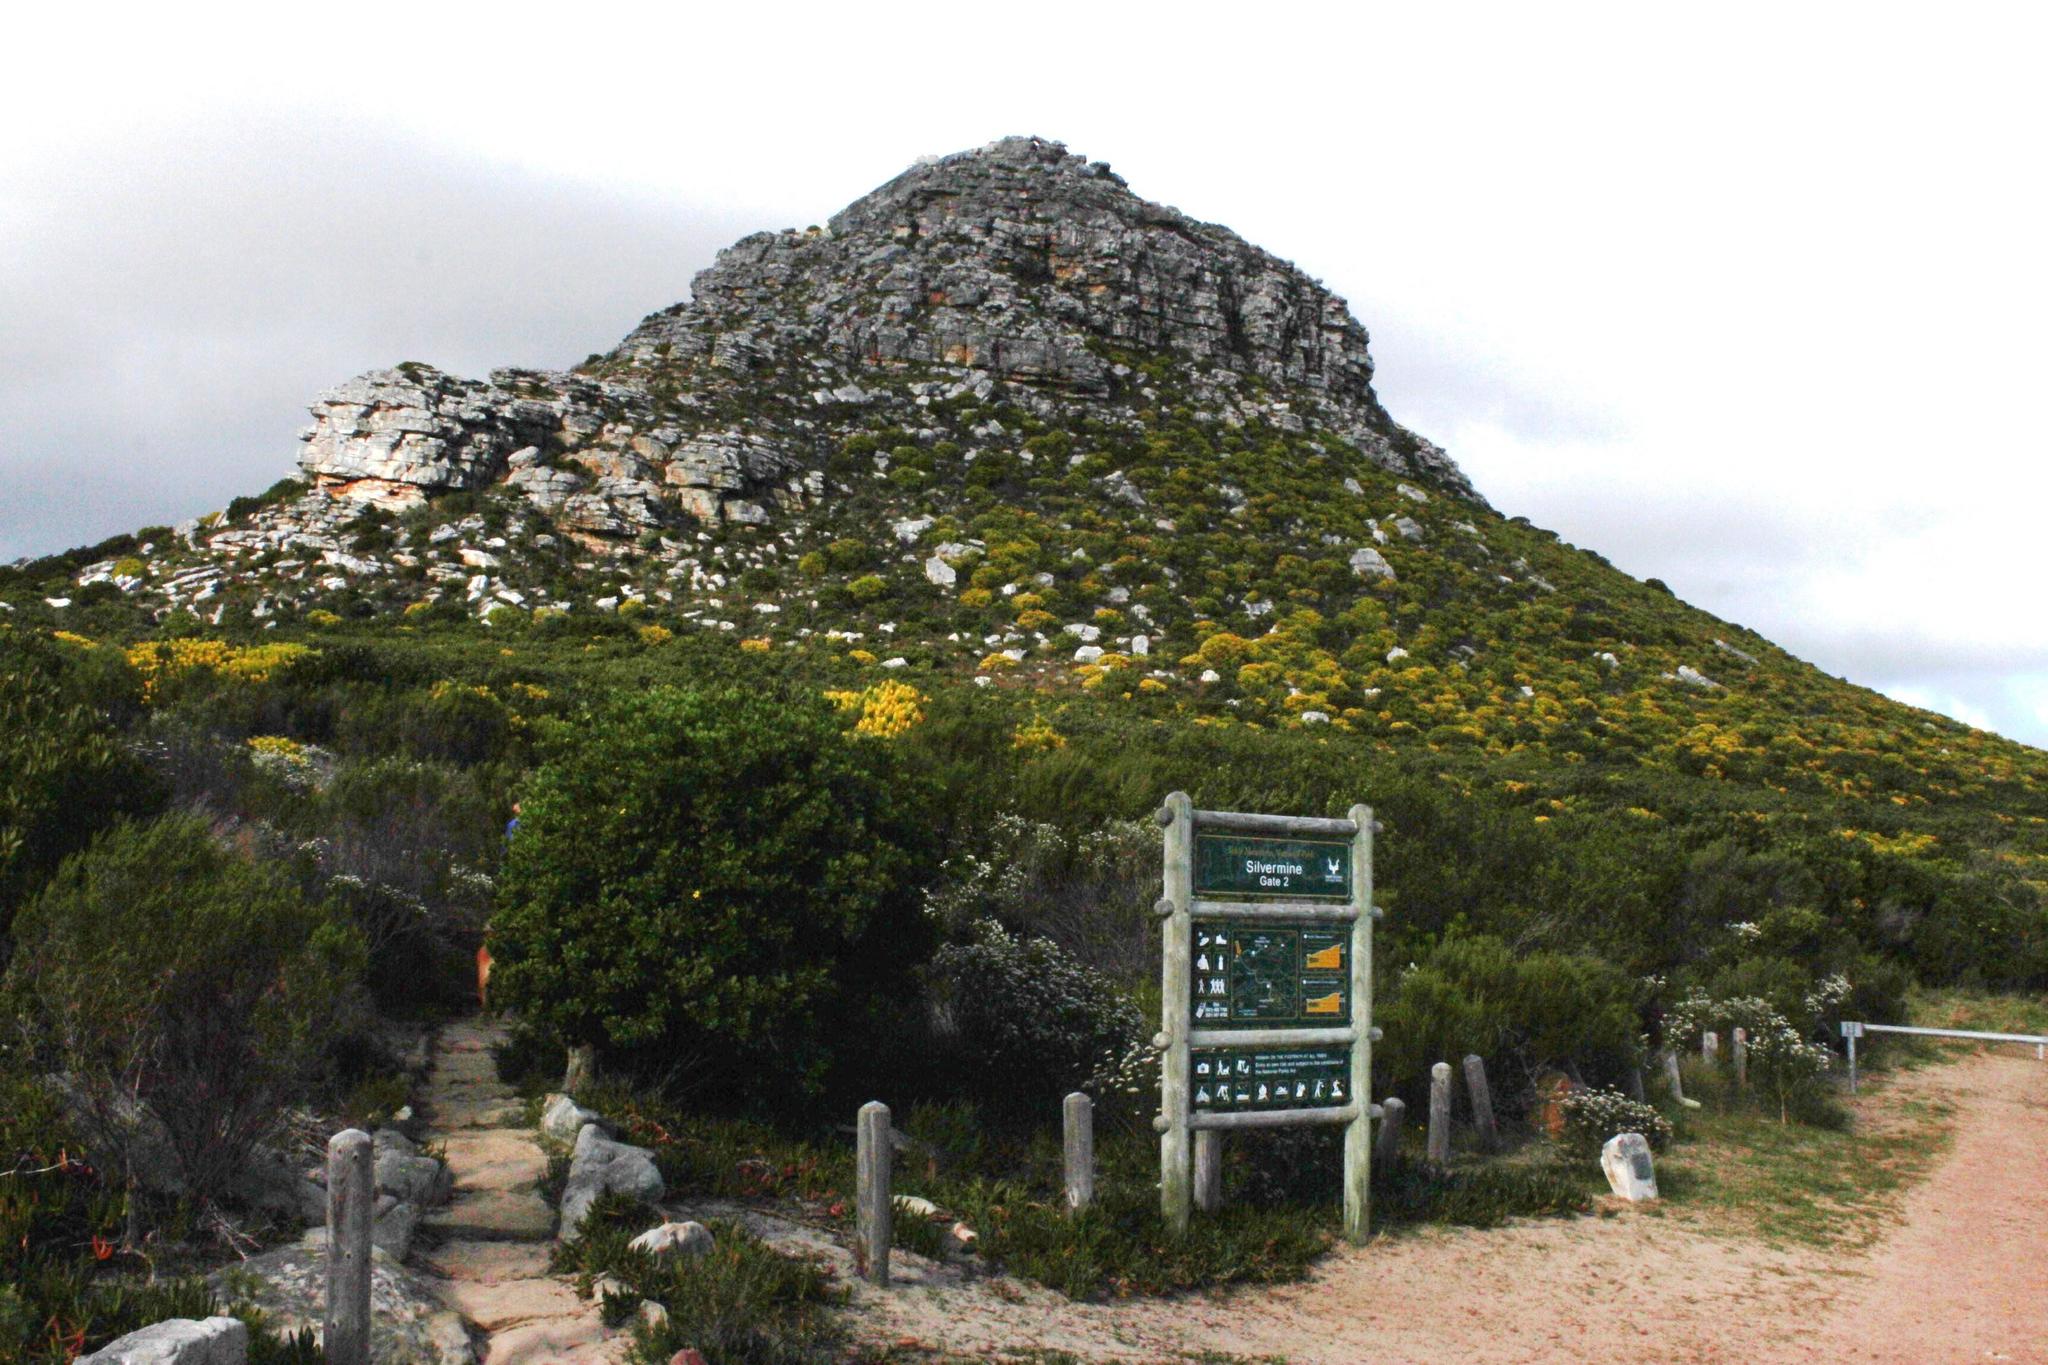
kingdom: Plantae
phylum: Tracheophyta
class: Magnoliopsida
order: Proteales
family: Proteaceae
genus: Leucadendron
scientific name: Leucadendron laureolum
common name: Golden sunshinebush
